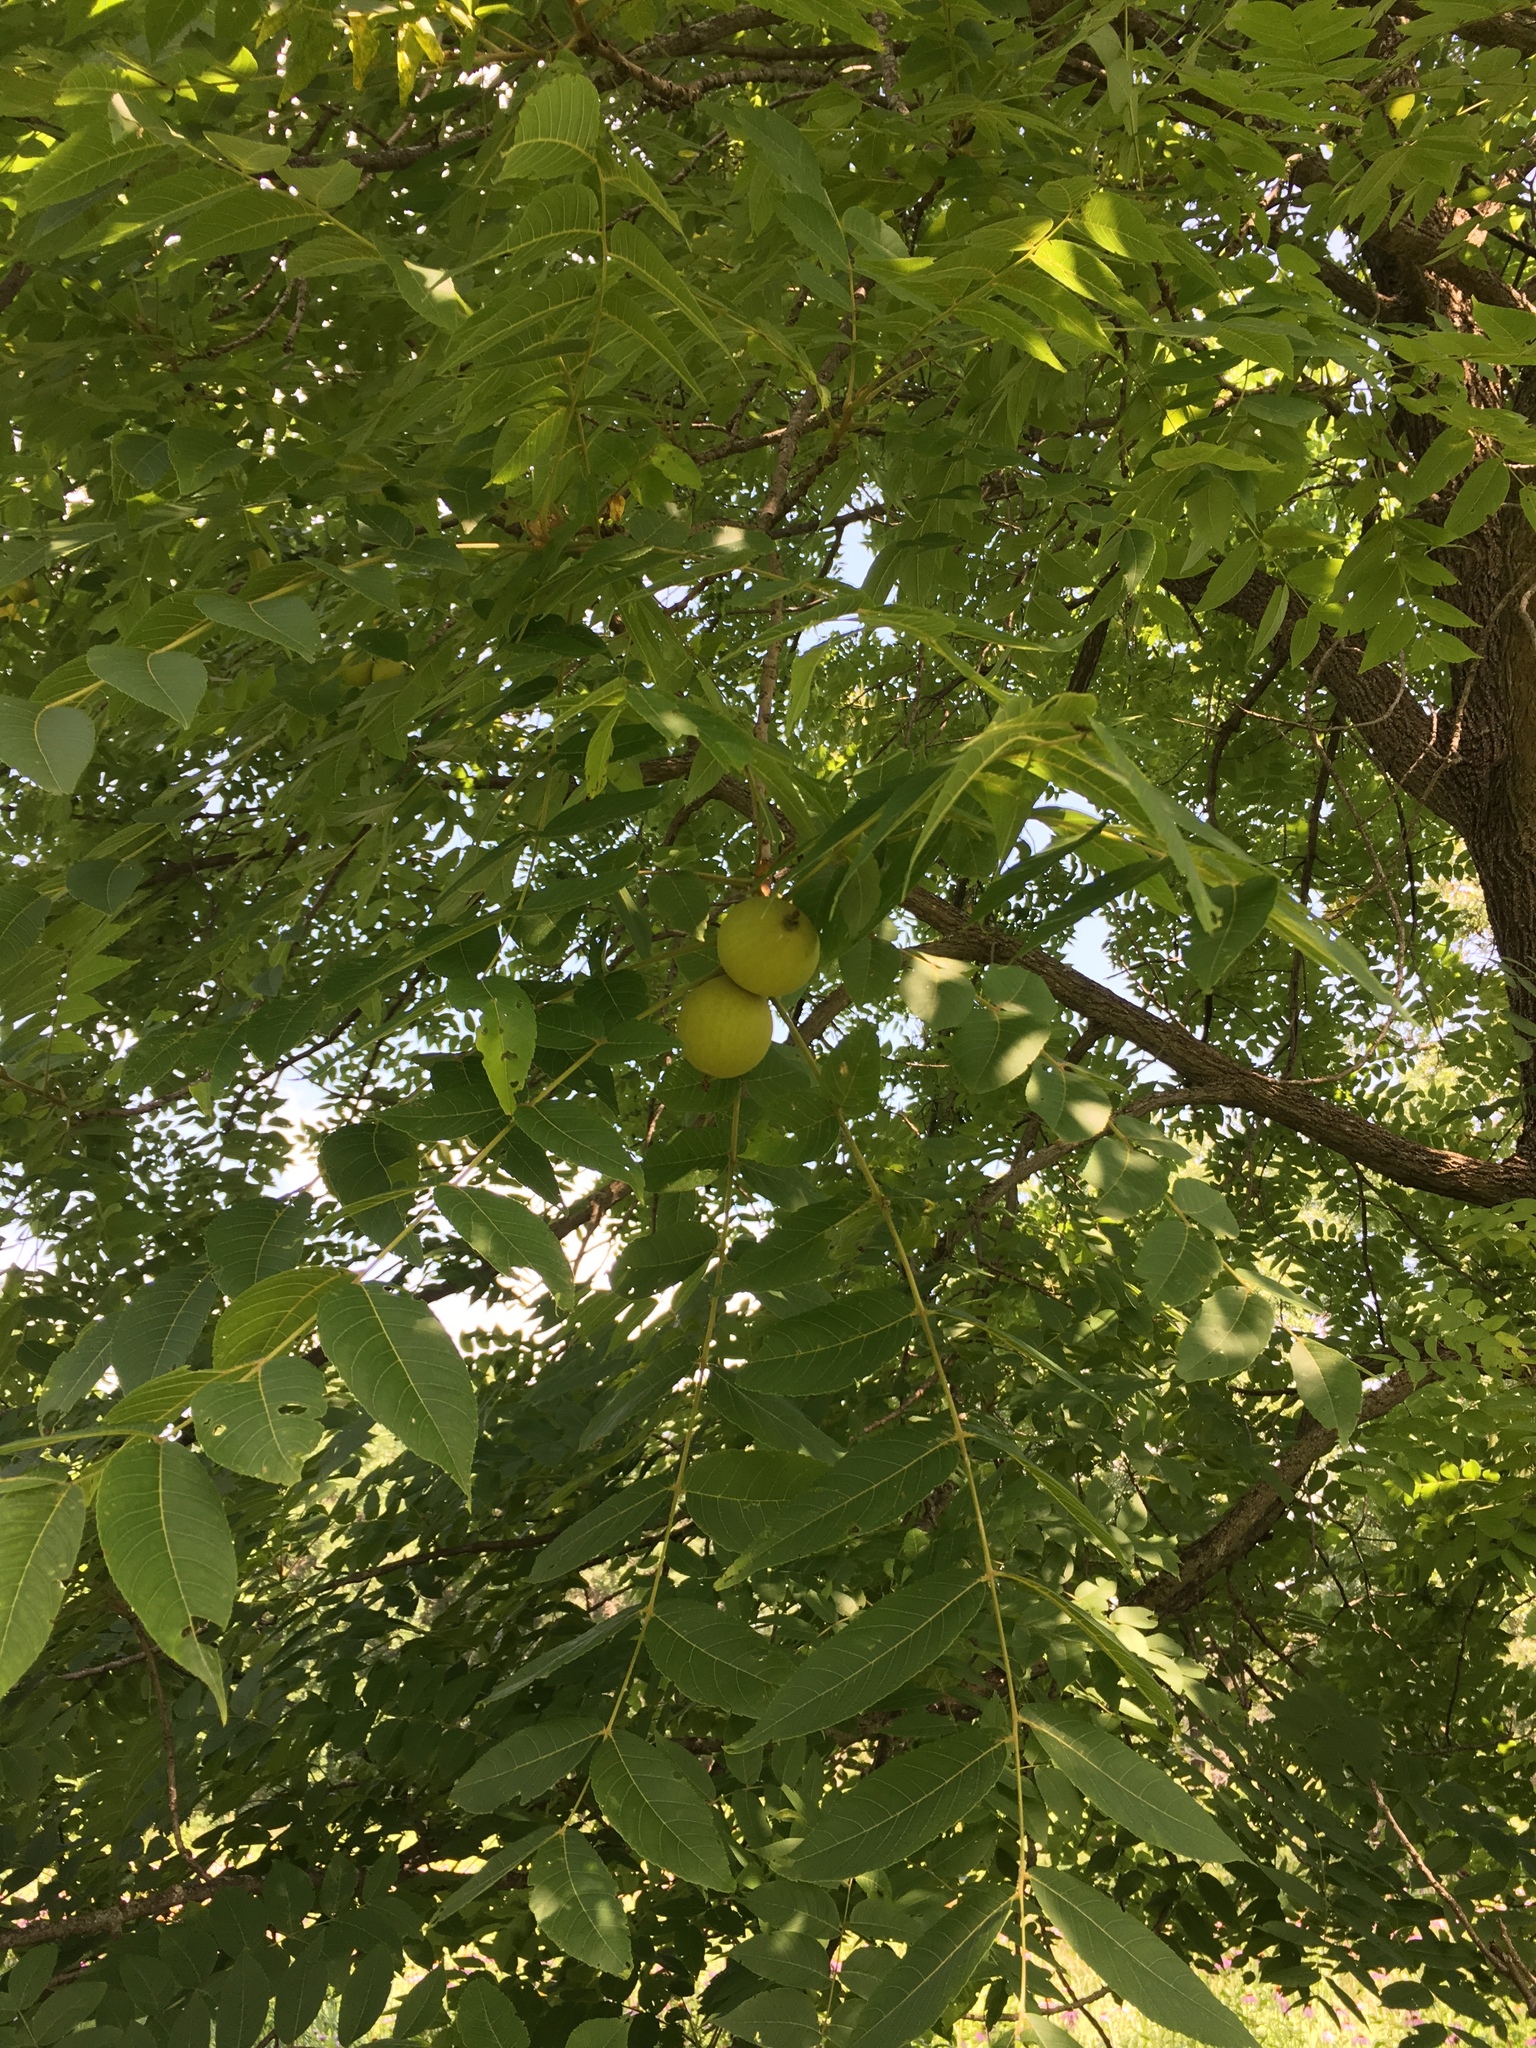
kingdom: Plantae
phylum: Tracheophyta
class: Magnoliopsida
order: Fagales
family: Juglandaceae
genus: Juglans
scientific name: Juglans nigra
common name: Black walnut
